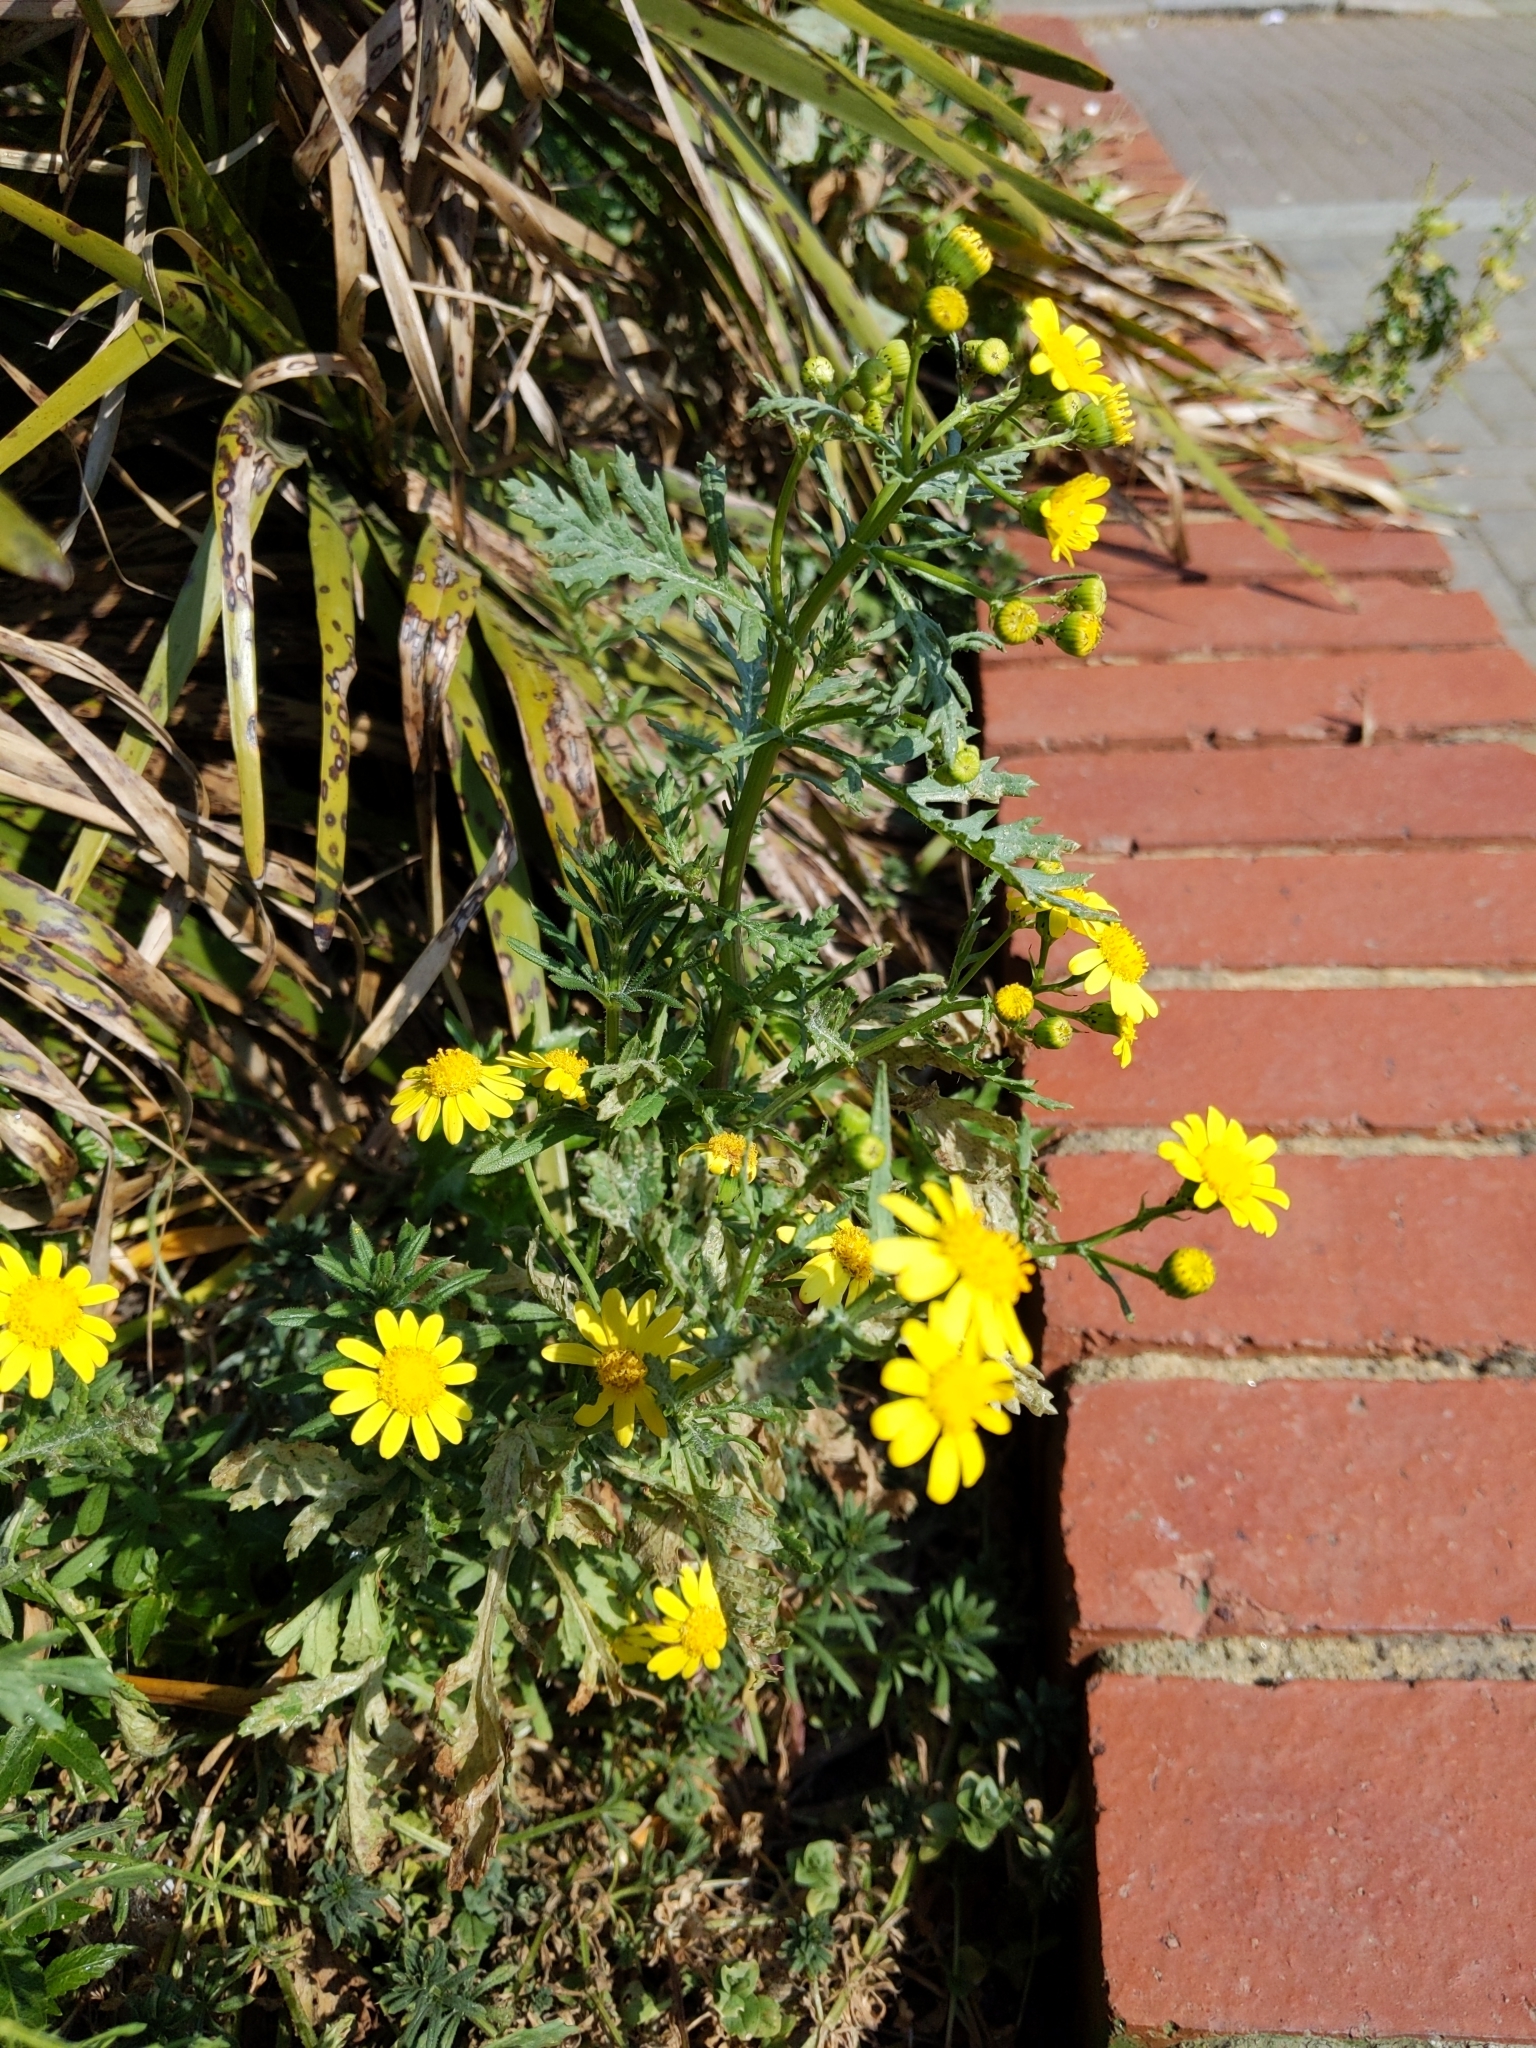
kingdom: Plantae
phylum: Tracheophyta
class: Magnoliopsida
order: Asterales
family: Asteraceae
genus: Senecio
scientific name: Senecio squalidus
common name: Oxford ragwort
